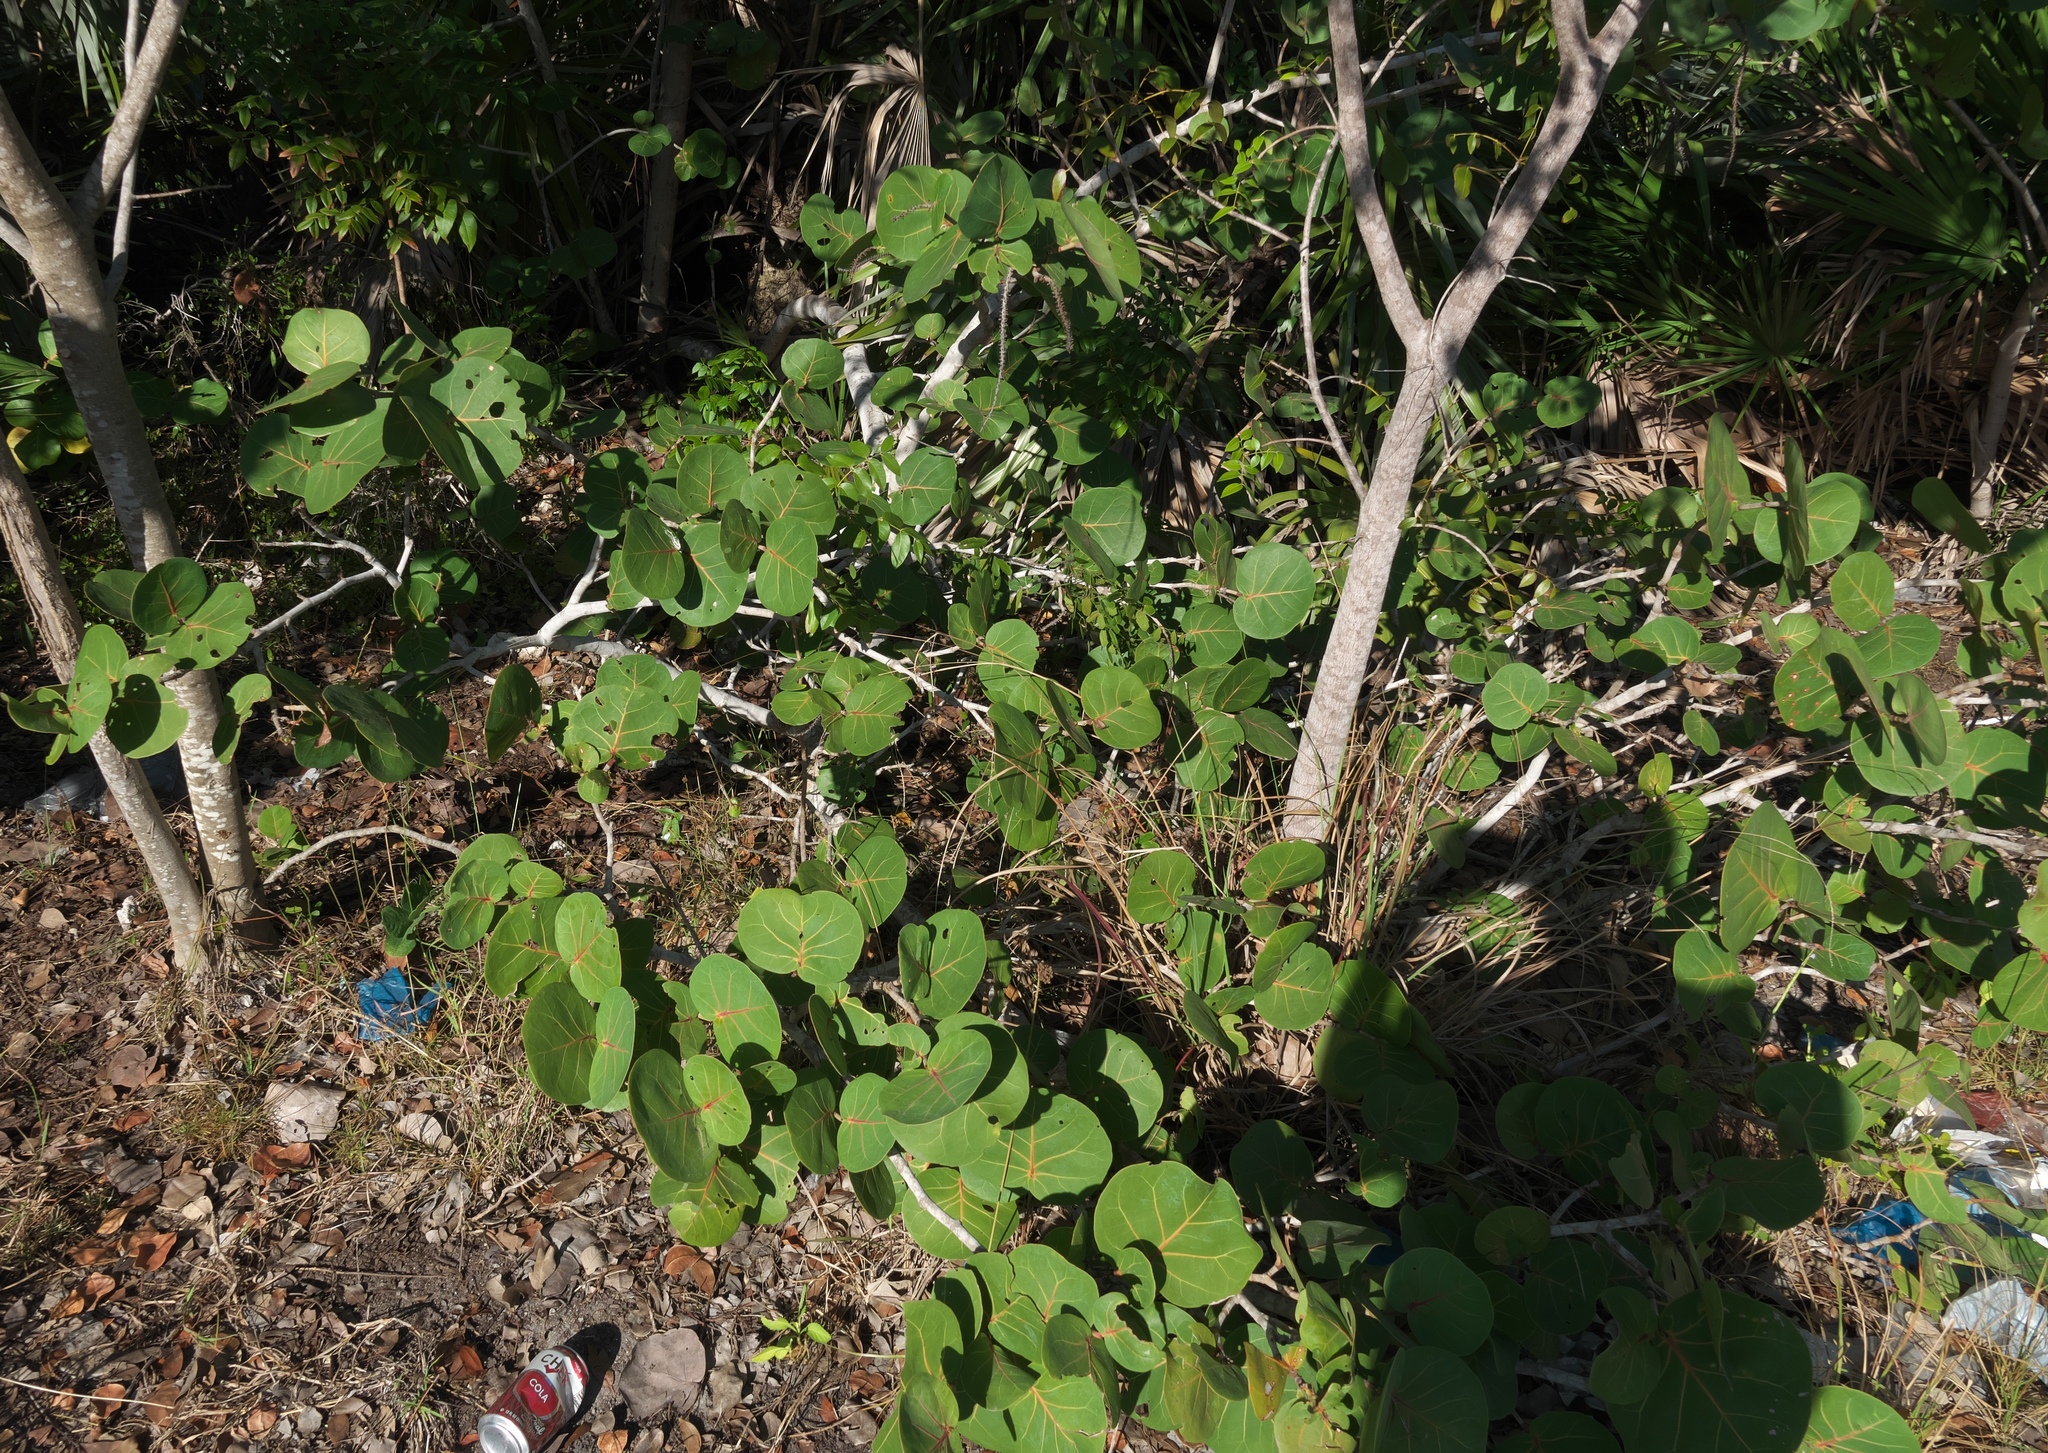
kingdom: Plantae
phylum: Tracheophyta
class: Magnoliopsida
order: Caryophyllales
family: Polygonaceae
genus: Coccoloba
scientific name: Coccoloba uvifera
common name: Seagrape
